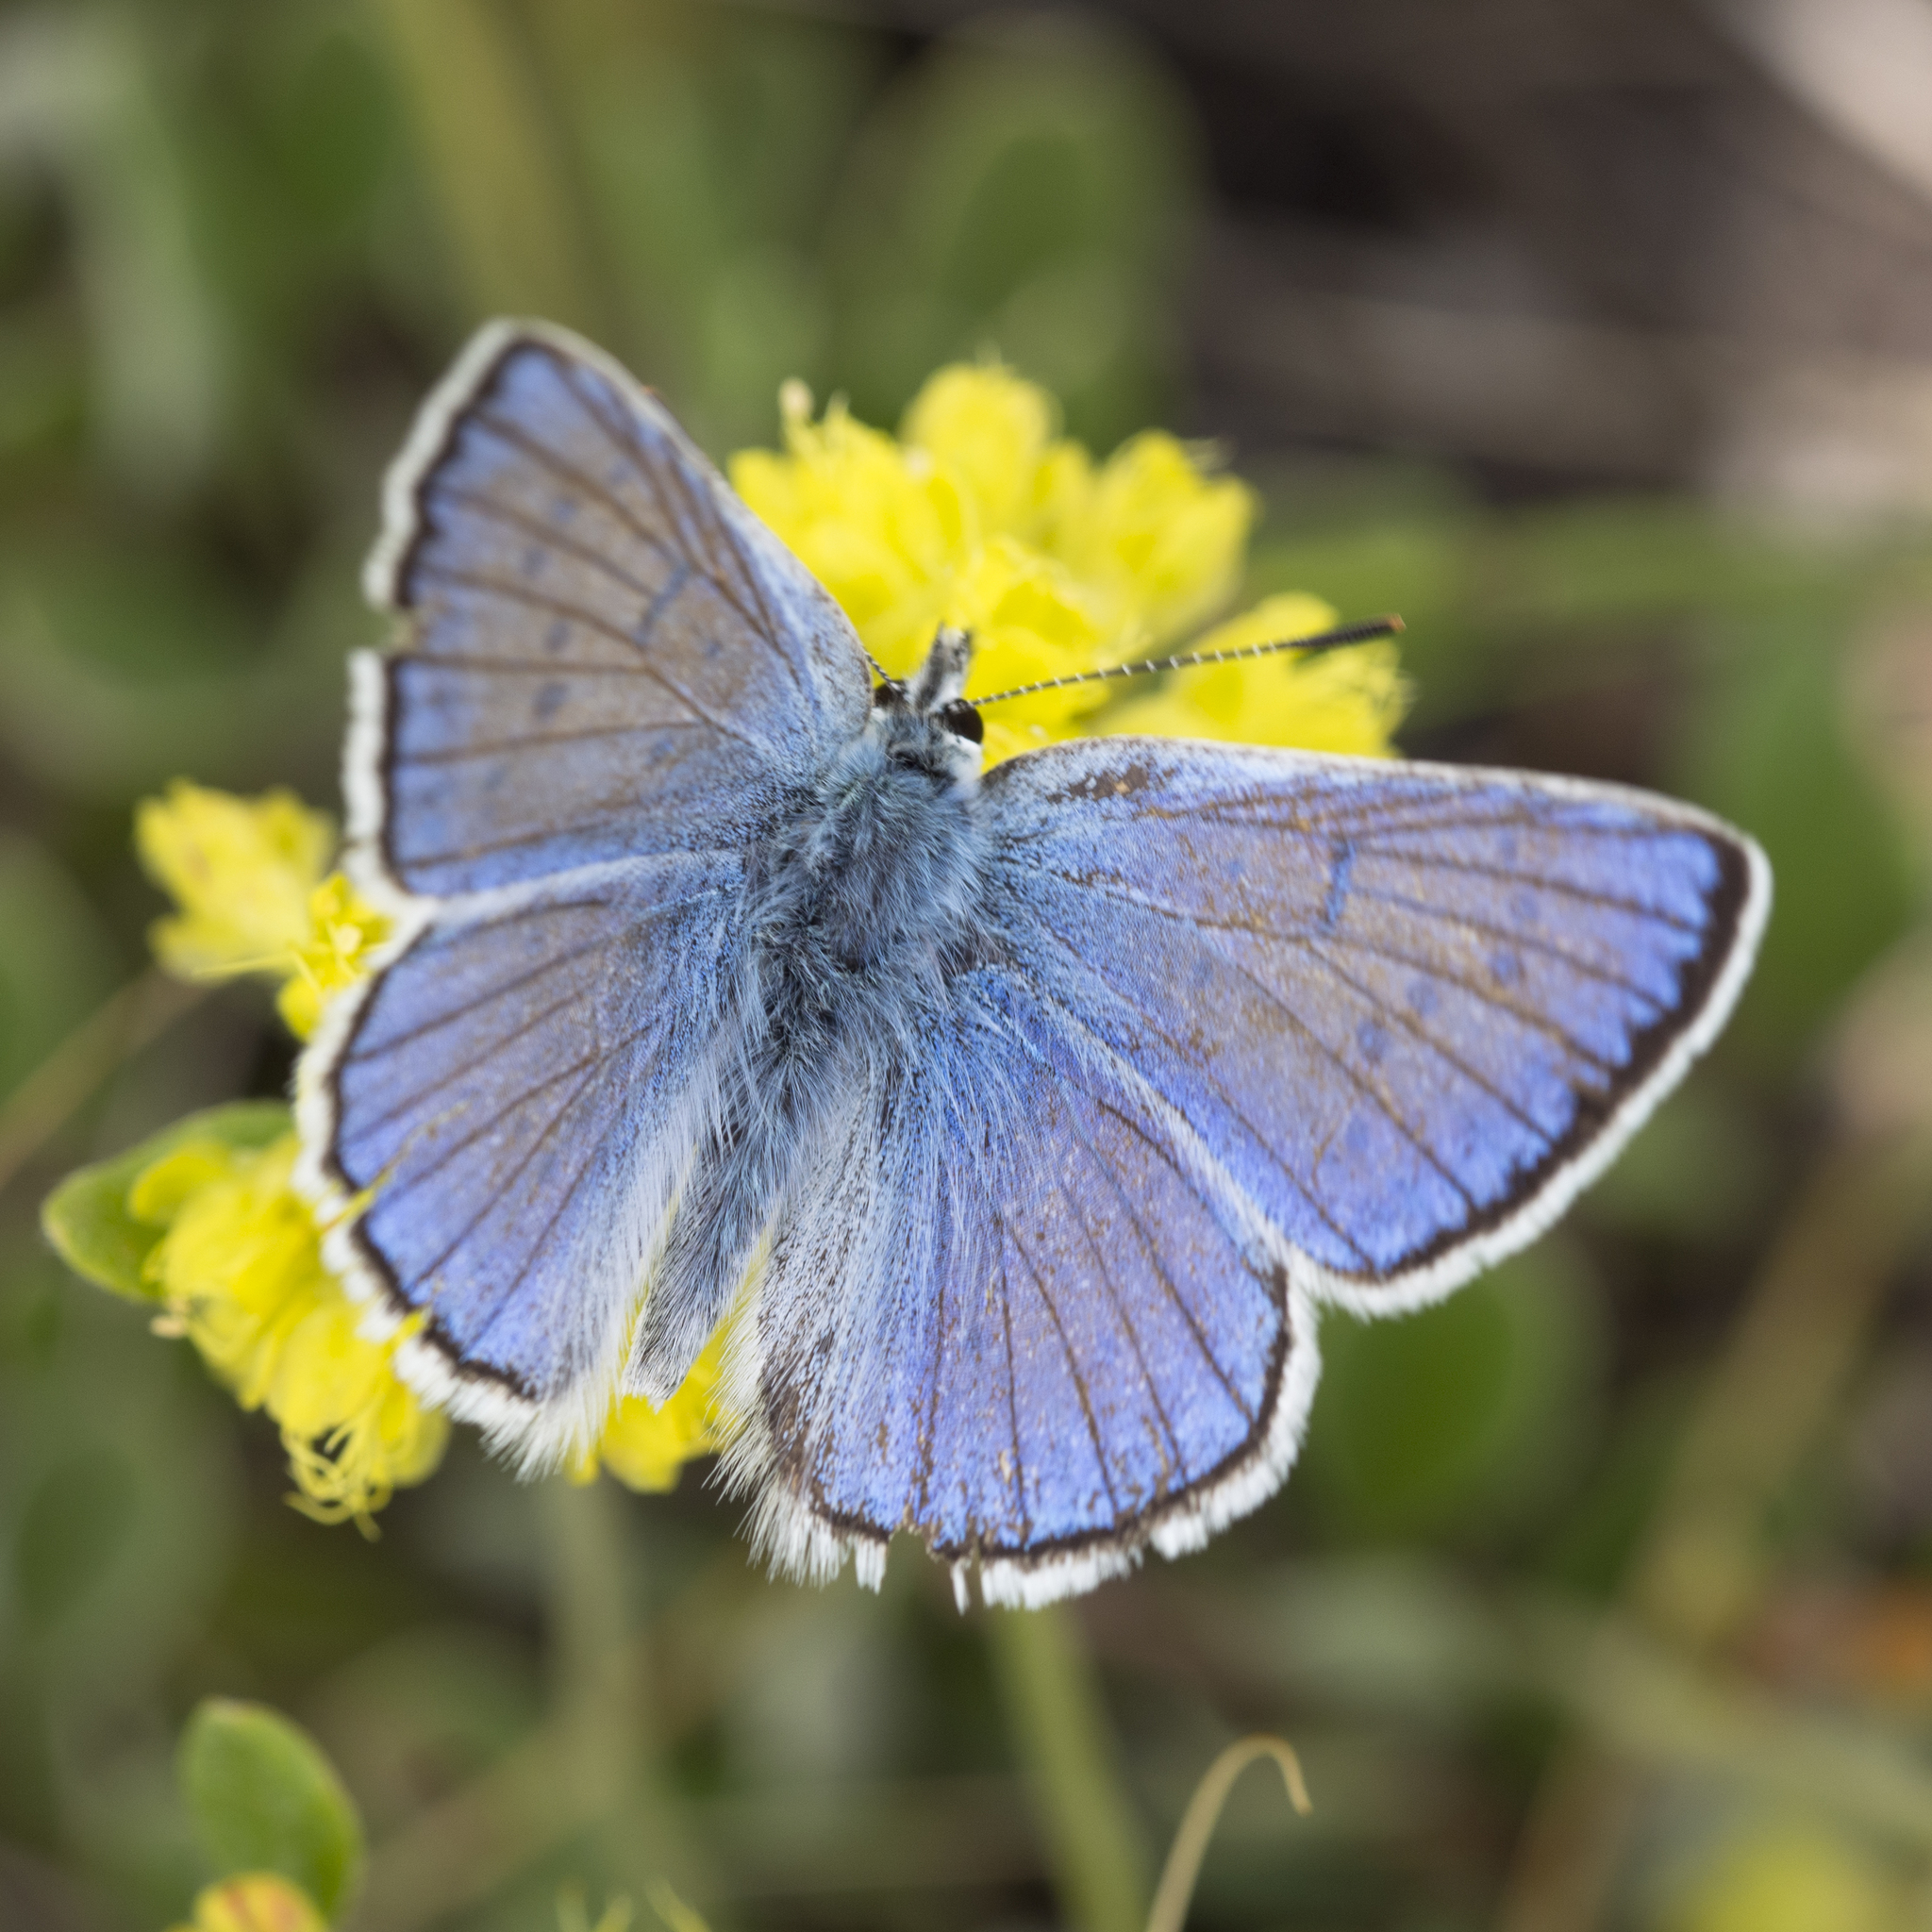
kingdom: Animalia
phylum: Arthropoda
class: Insecta
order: Lepidoptera
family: Lycaenidae
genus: Tharsalea
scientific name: Tharsalea heteronea
